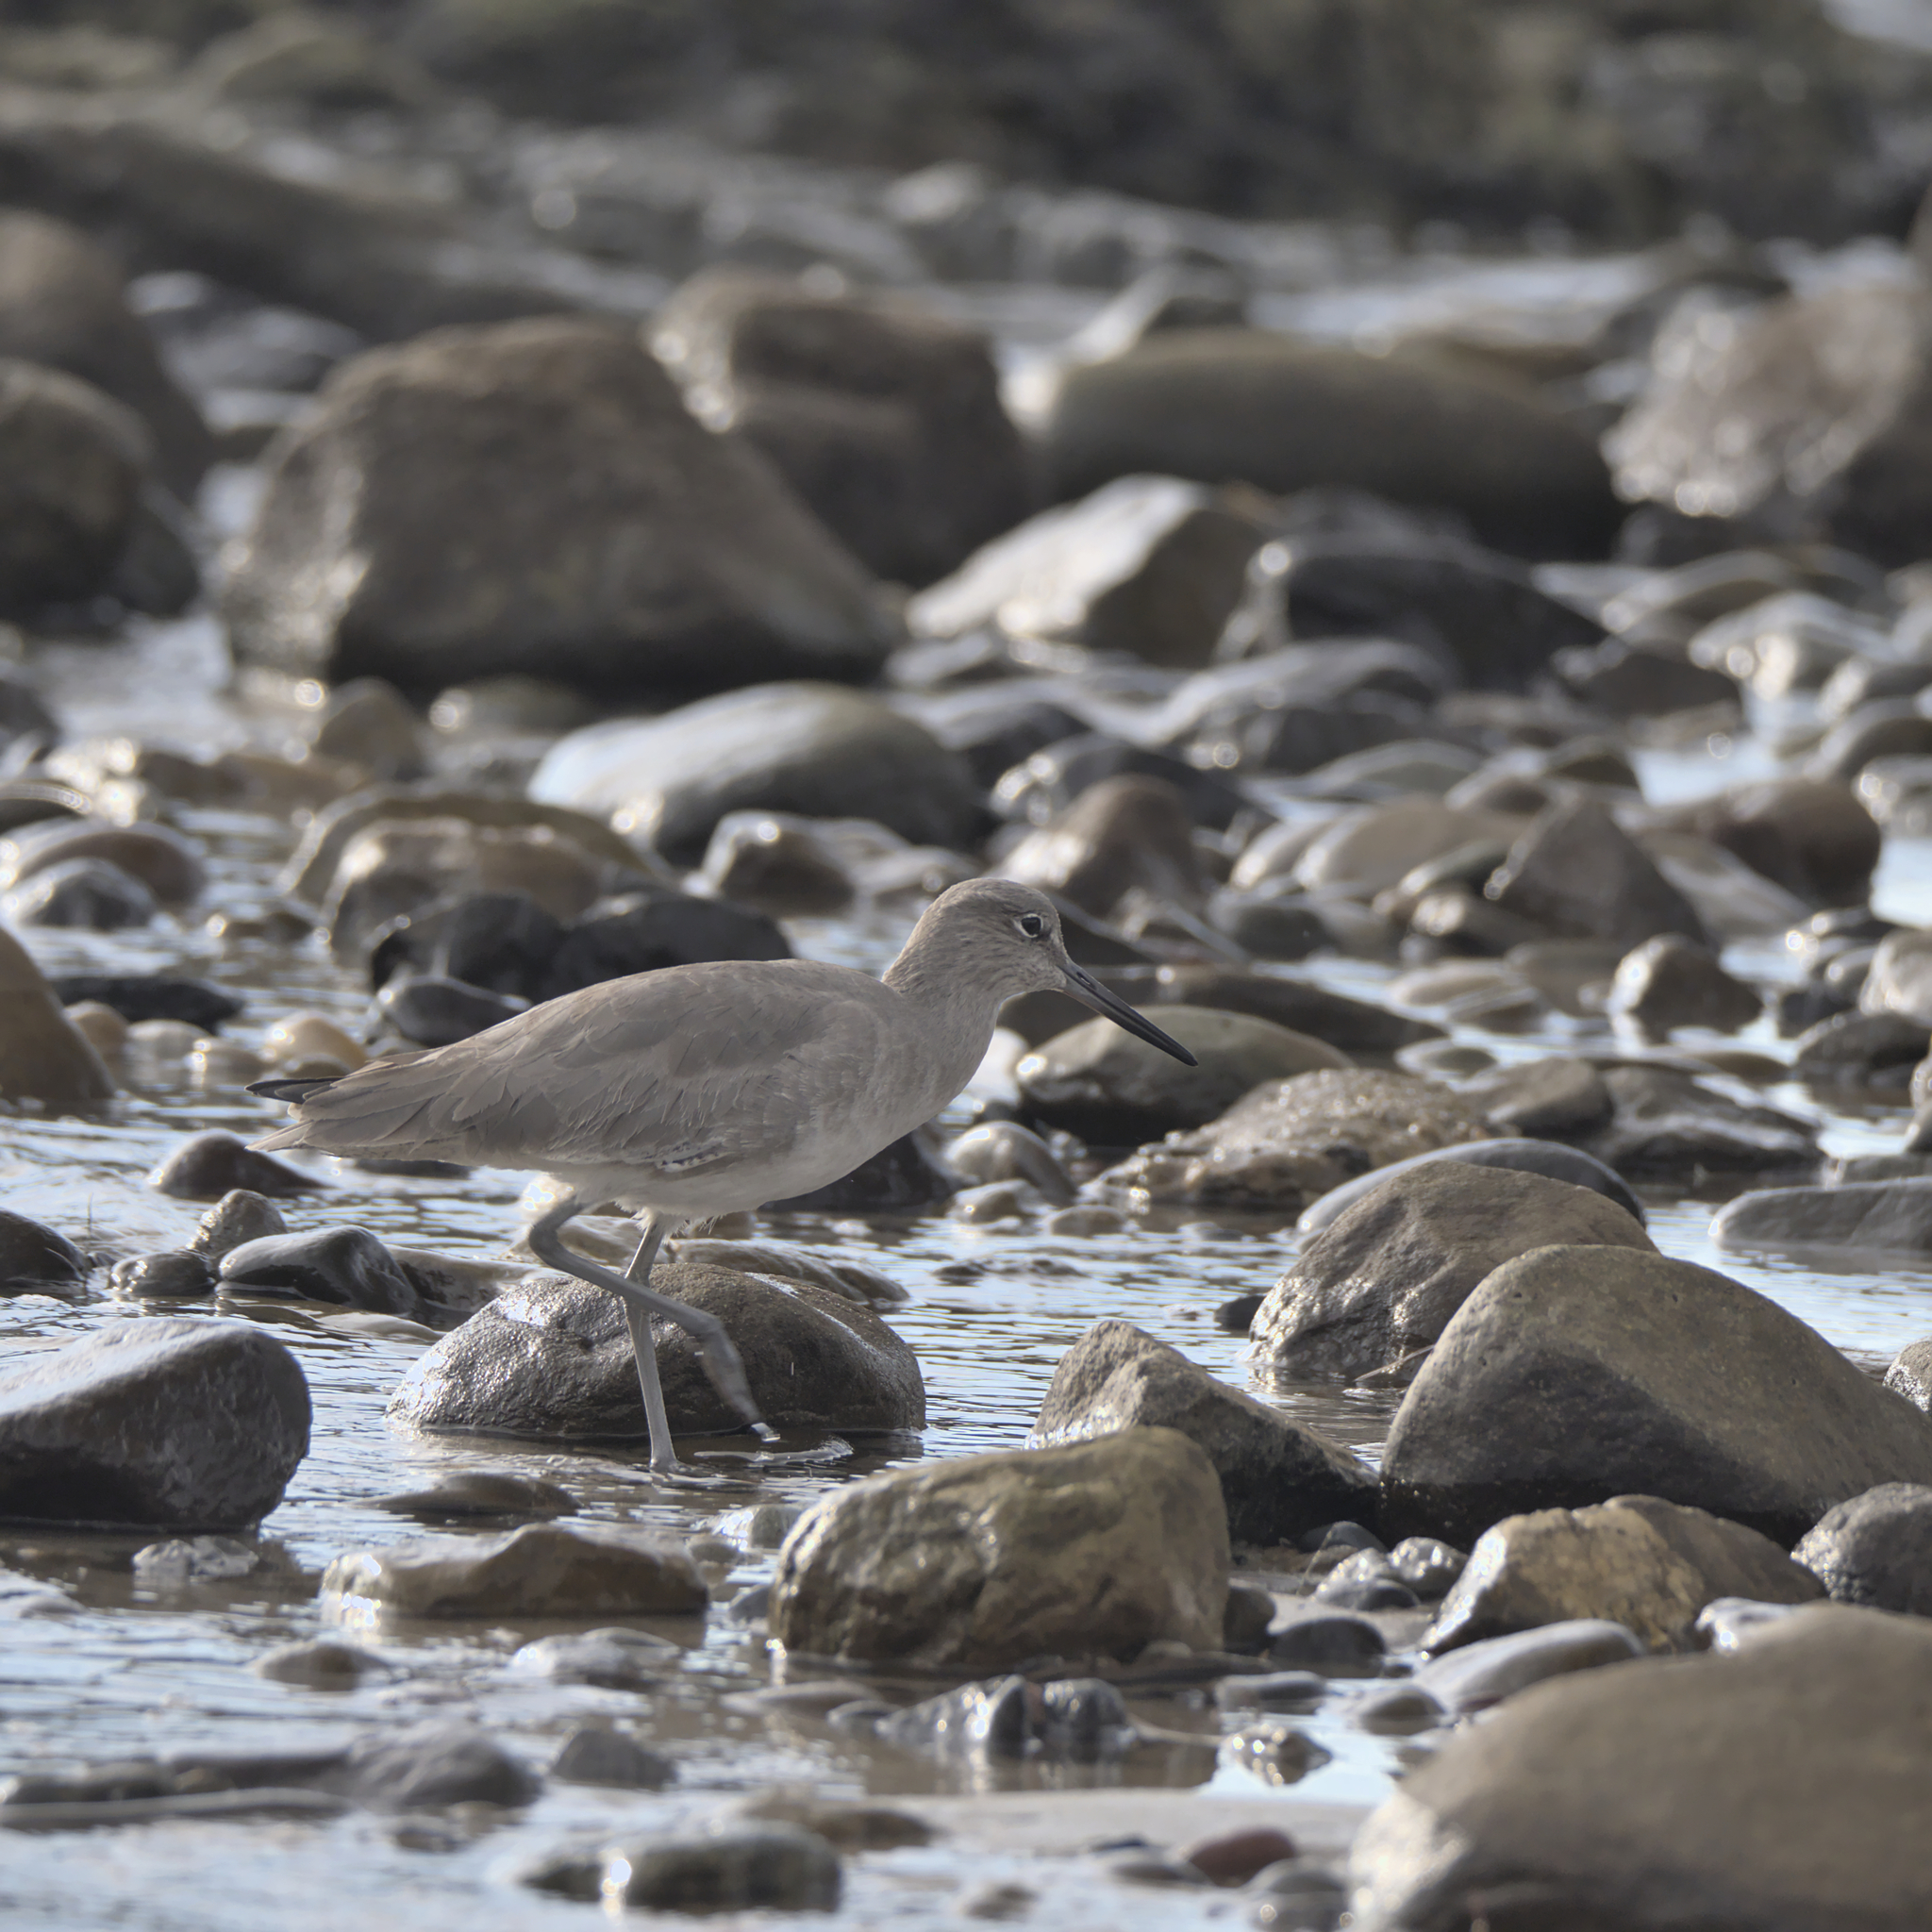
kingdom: Animalia
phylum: Chordata
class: Aves
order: Charadriiformes
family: Scolopacidae
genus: Tringa
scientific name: Tringa semipalmata
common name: Willet
